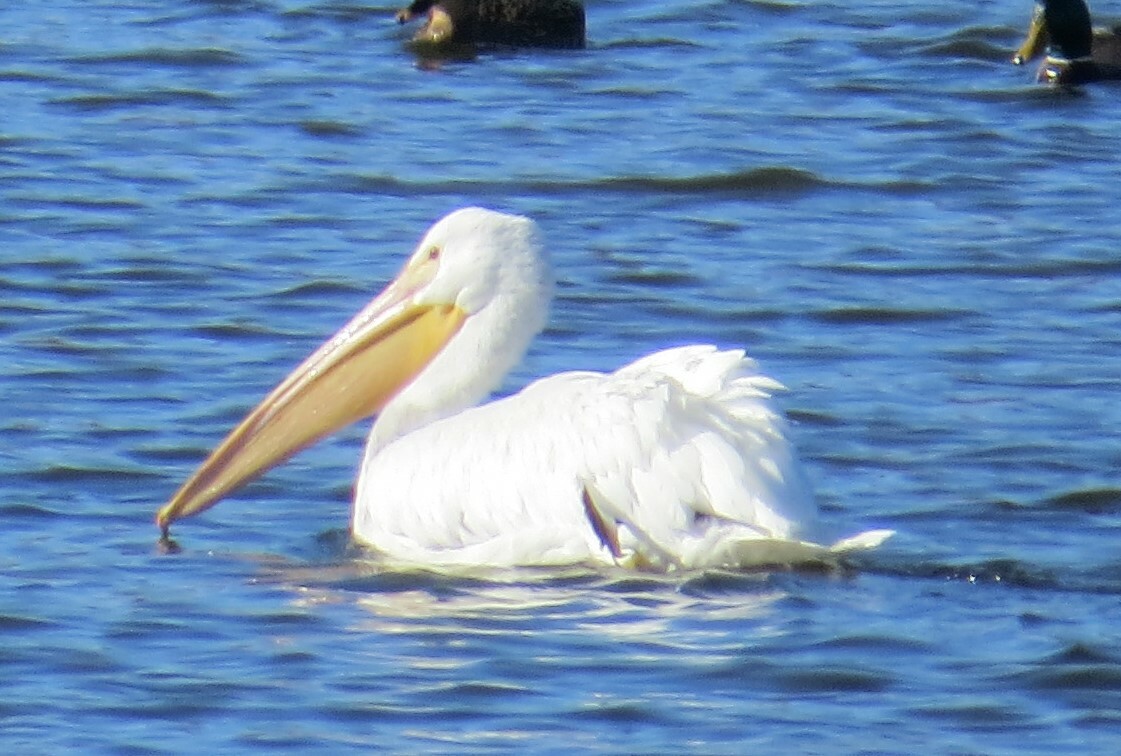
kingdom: Animalia
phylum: Chordata
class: Aves
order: Pelecaniformes
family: Pelecanidae
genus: Pelecanus
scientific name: Pelecanus erythrorhynchos
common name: American white pelican
